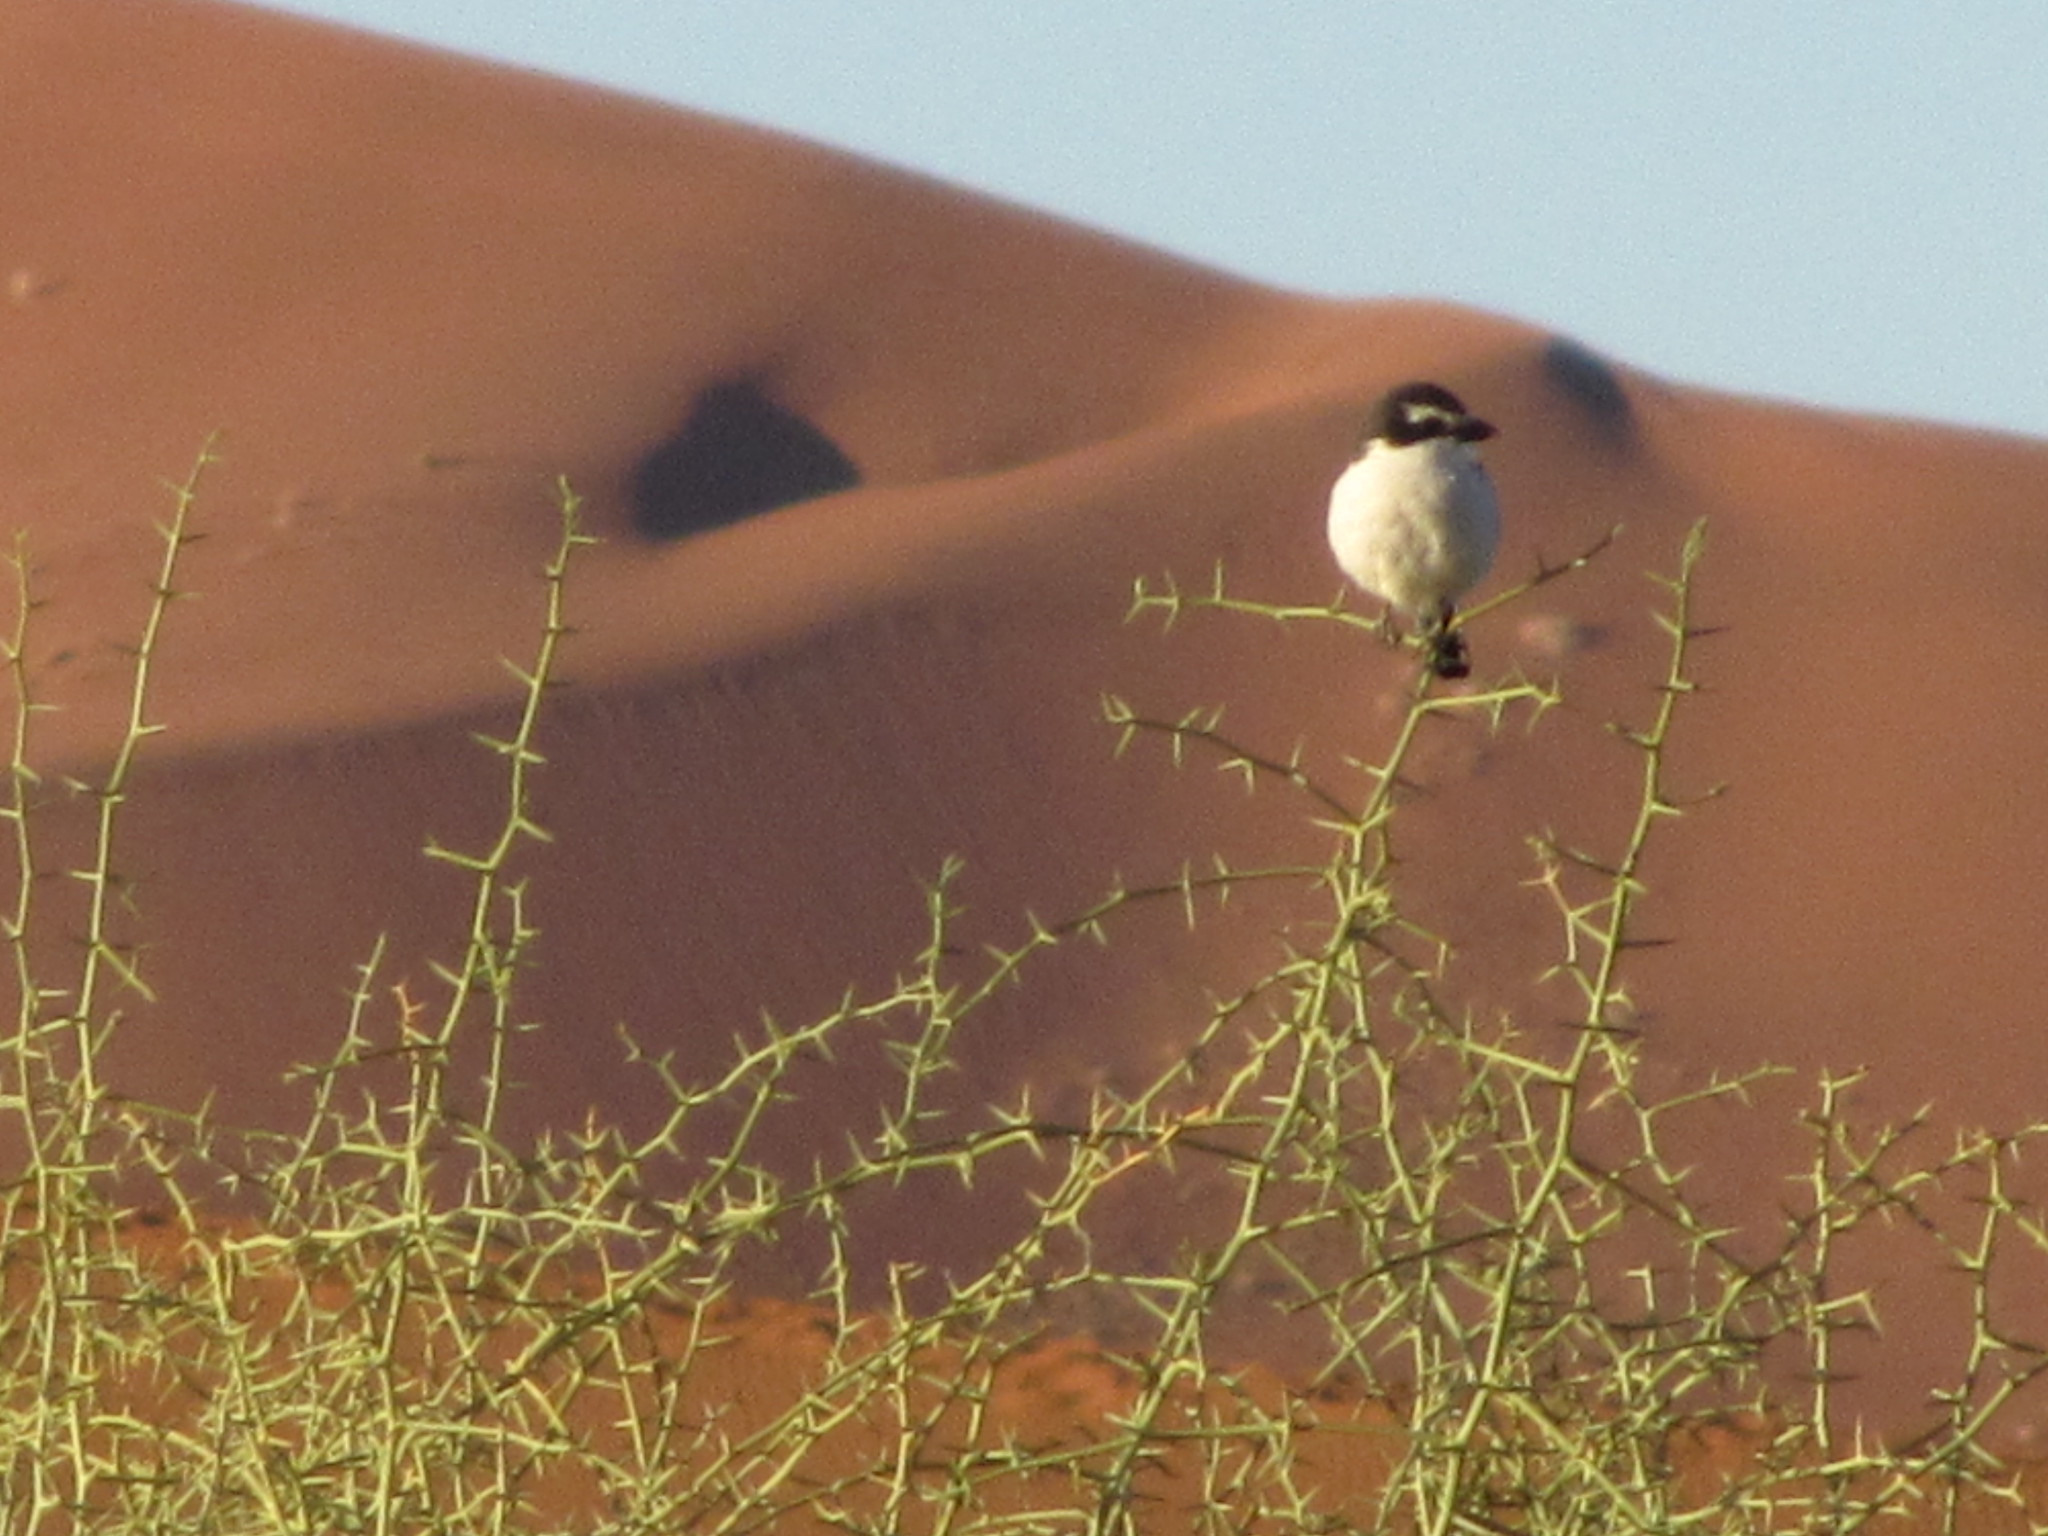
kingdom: Animalia
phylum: Chordata
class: Aves
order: Passeriformes
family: Laniidae
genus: Lanius
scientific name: Lanius collaris
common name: Southern fiscal
